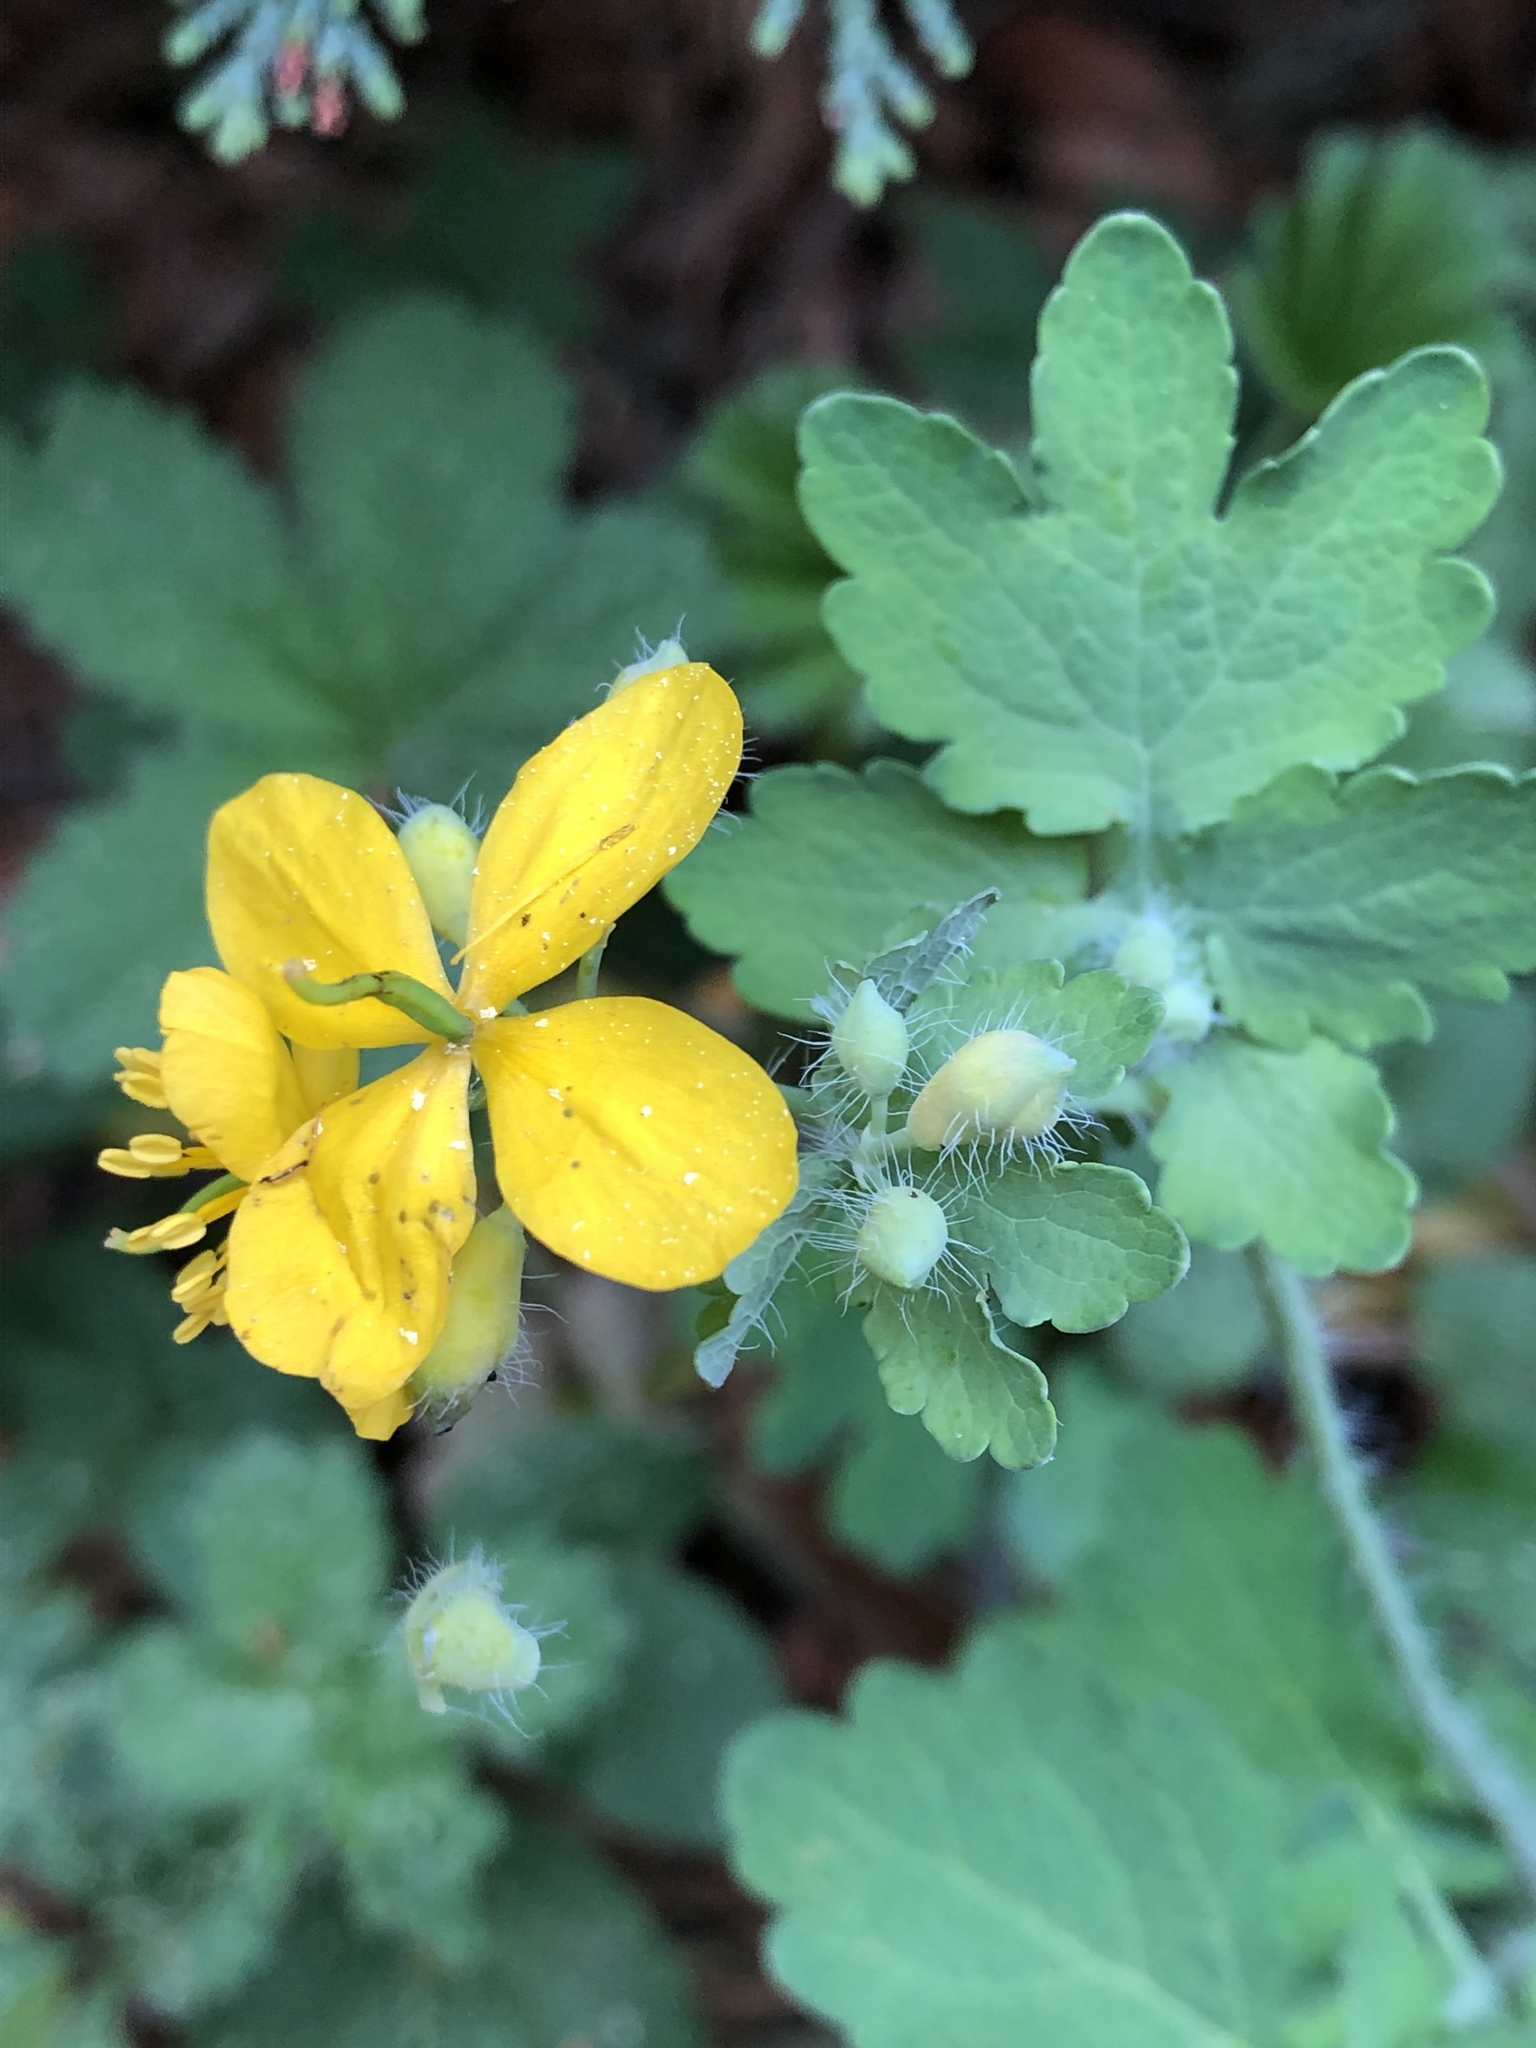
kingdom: Plantae
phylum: Tracheophyta
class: Magnoliopsida
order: Ranunculales
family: Papaveraceae
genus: Chelidonium
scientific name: Chelidonium majus
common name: Greater celandine
